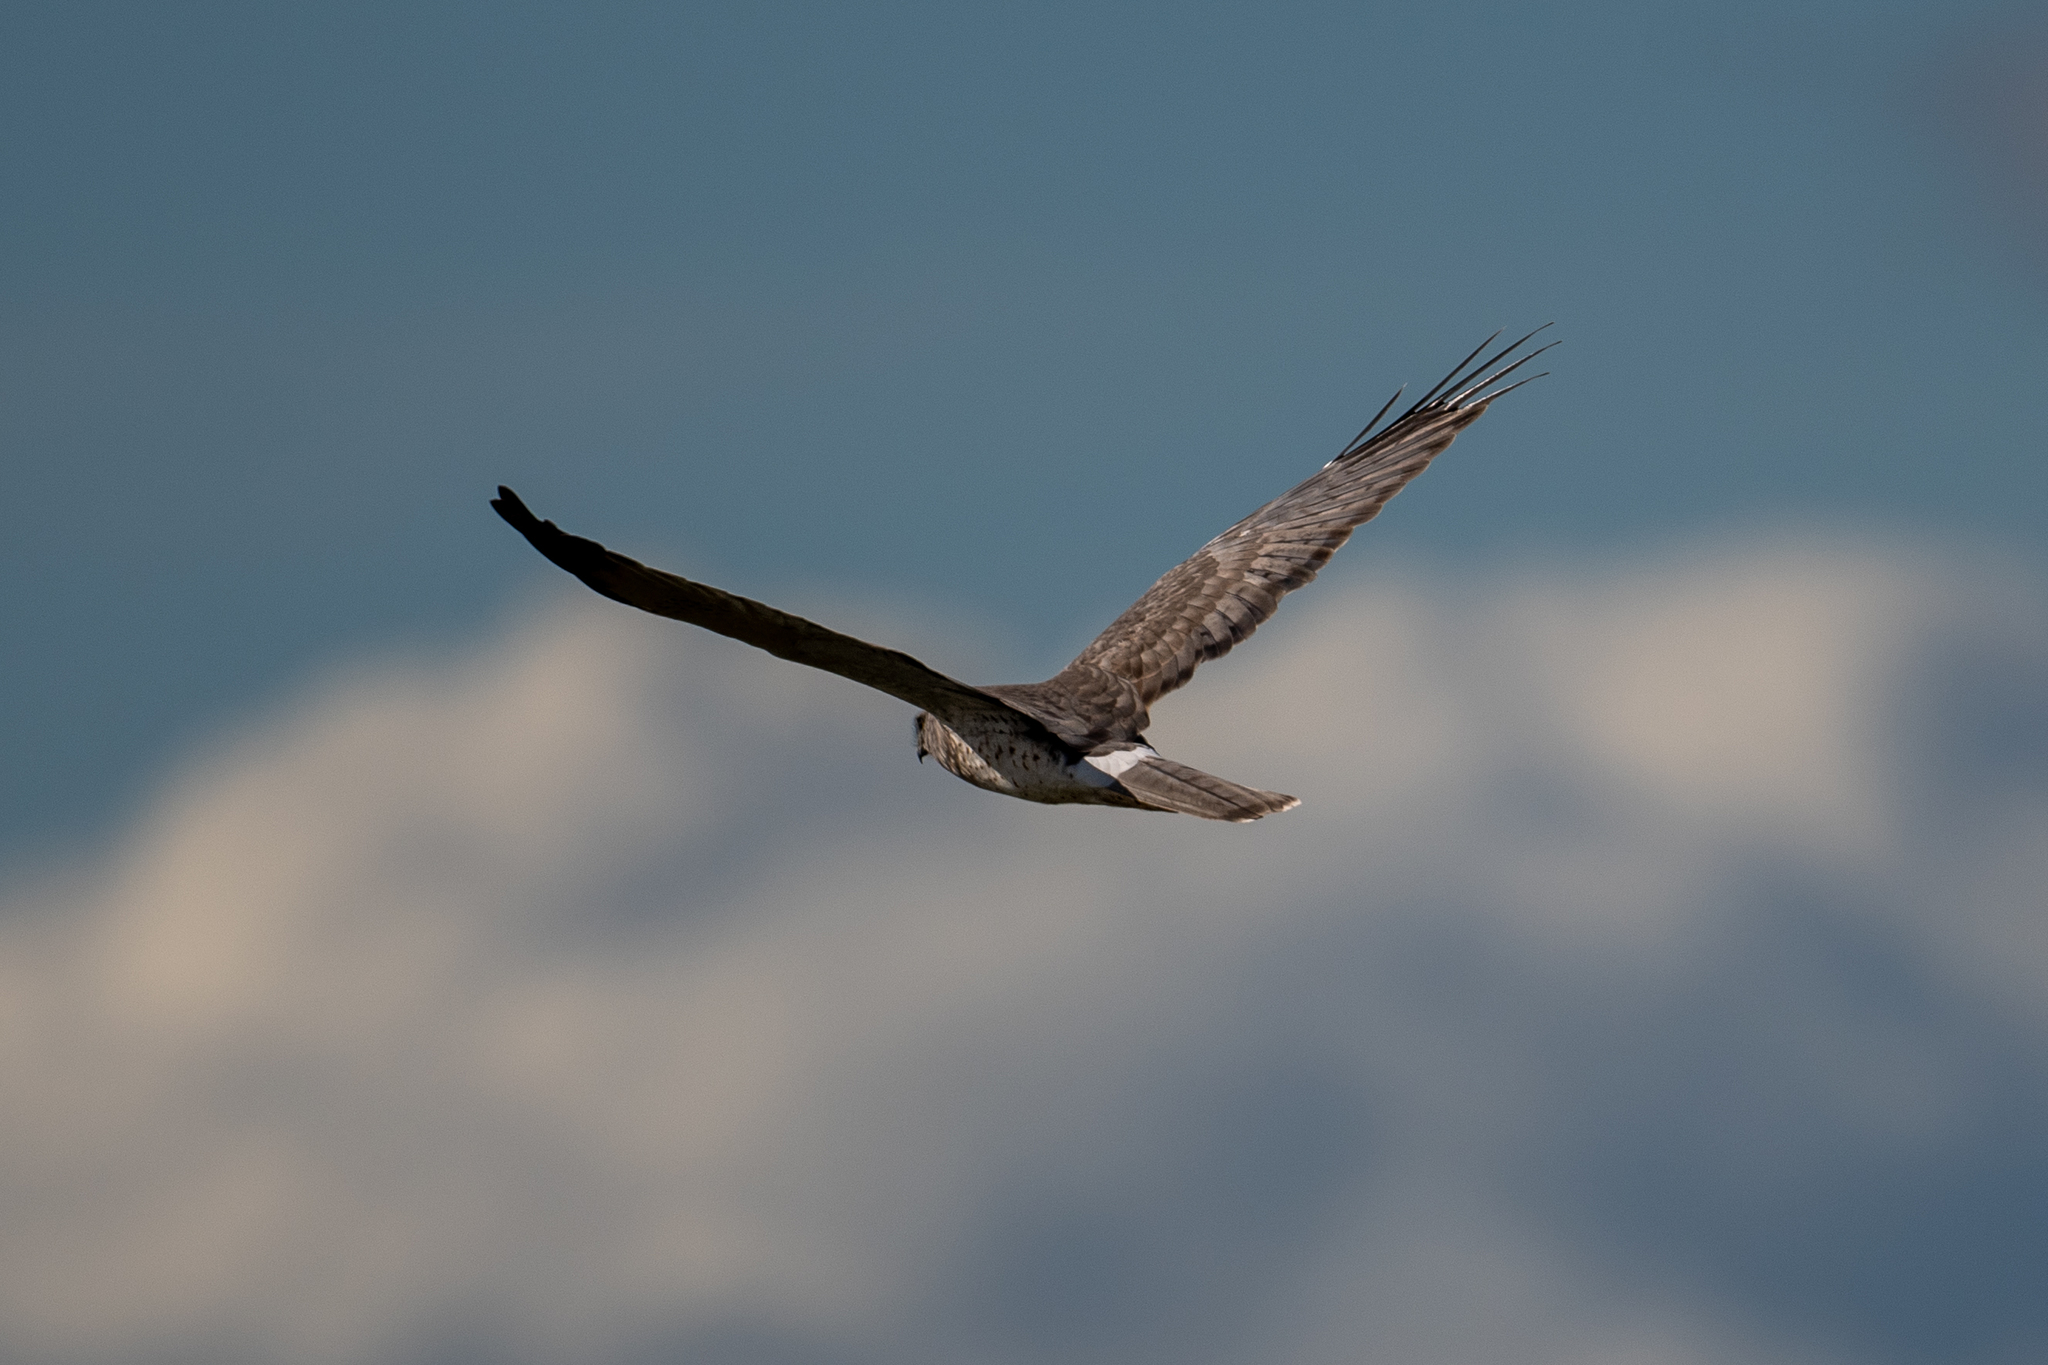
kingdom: Animalia
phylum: Chordata
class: Aves
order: Accipitriformes
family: Accipitridae
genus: Circus
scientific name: Circus cyaneus
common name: Hen harrier
